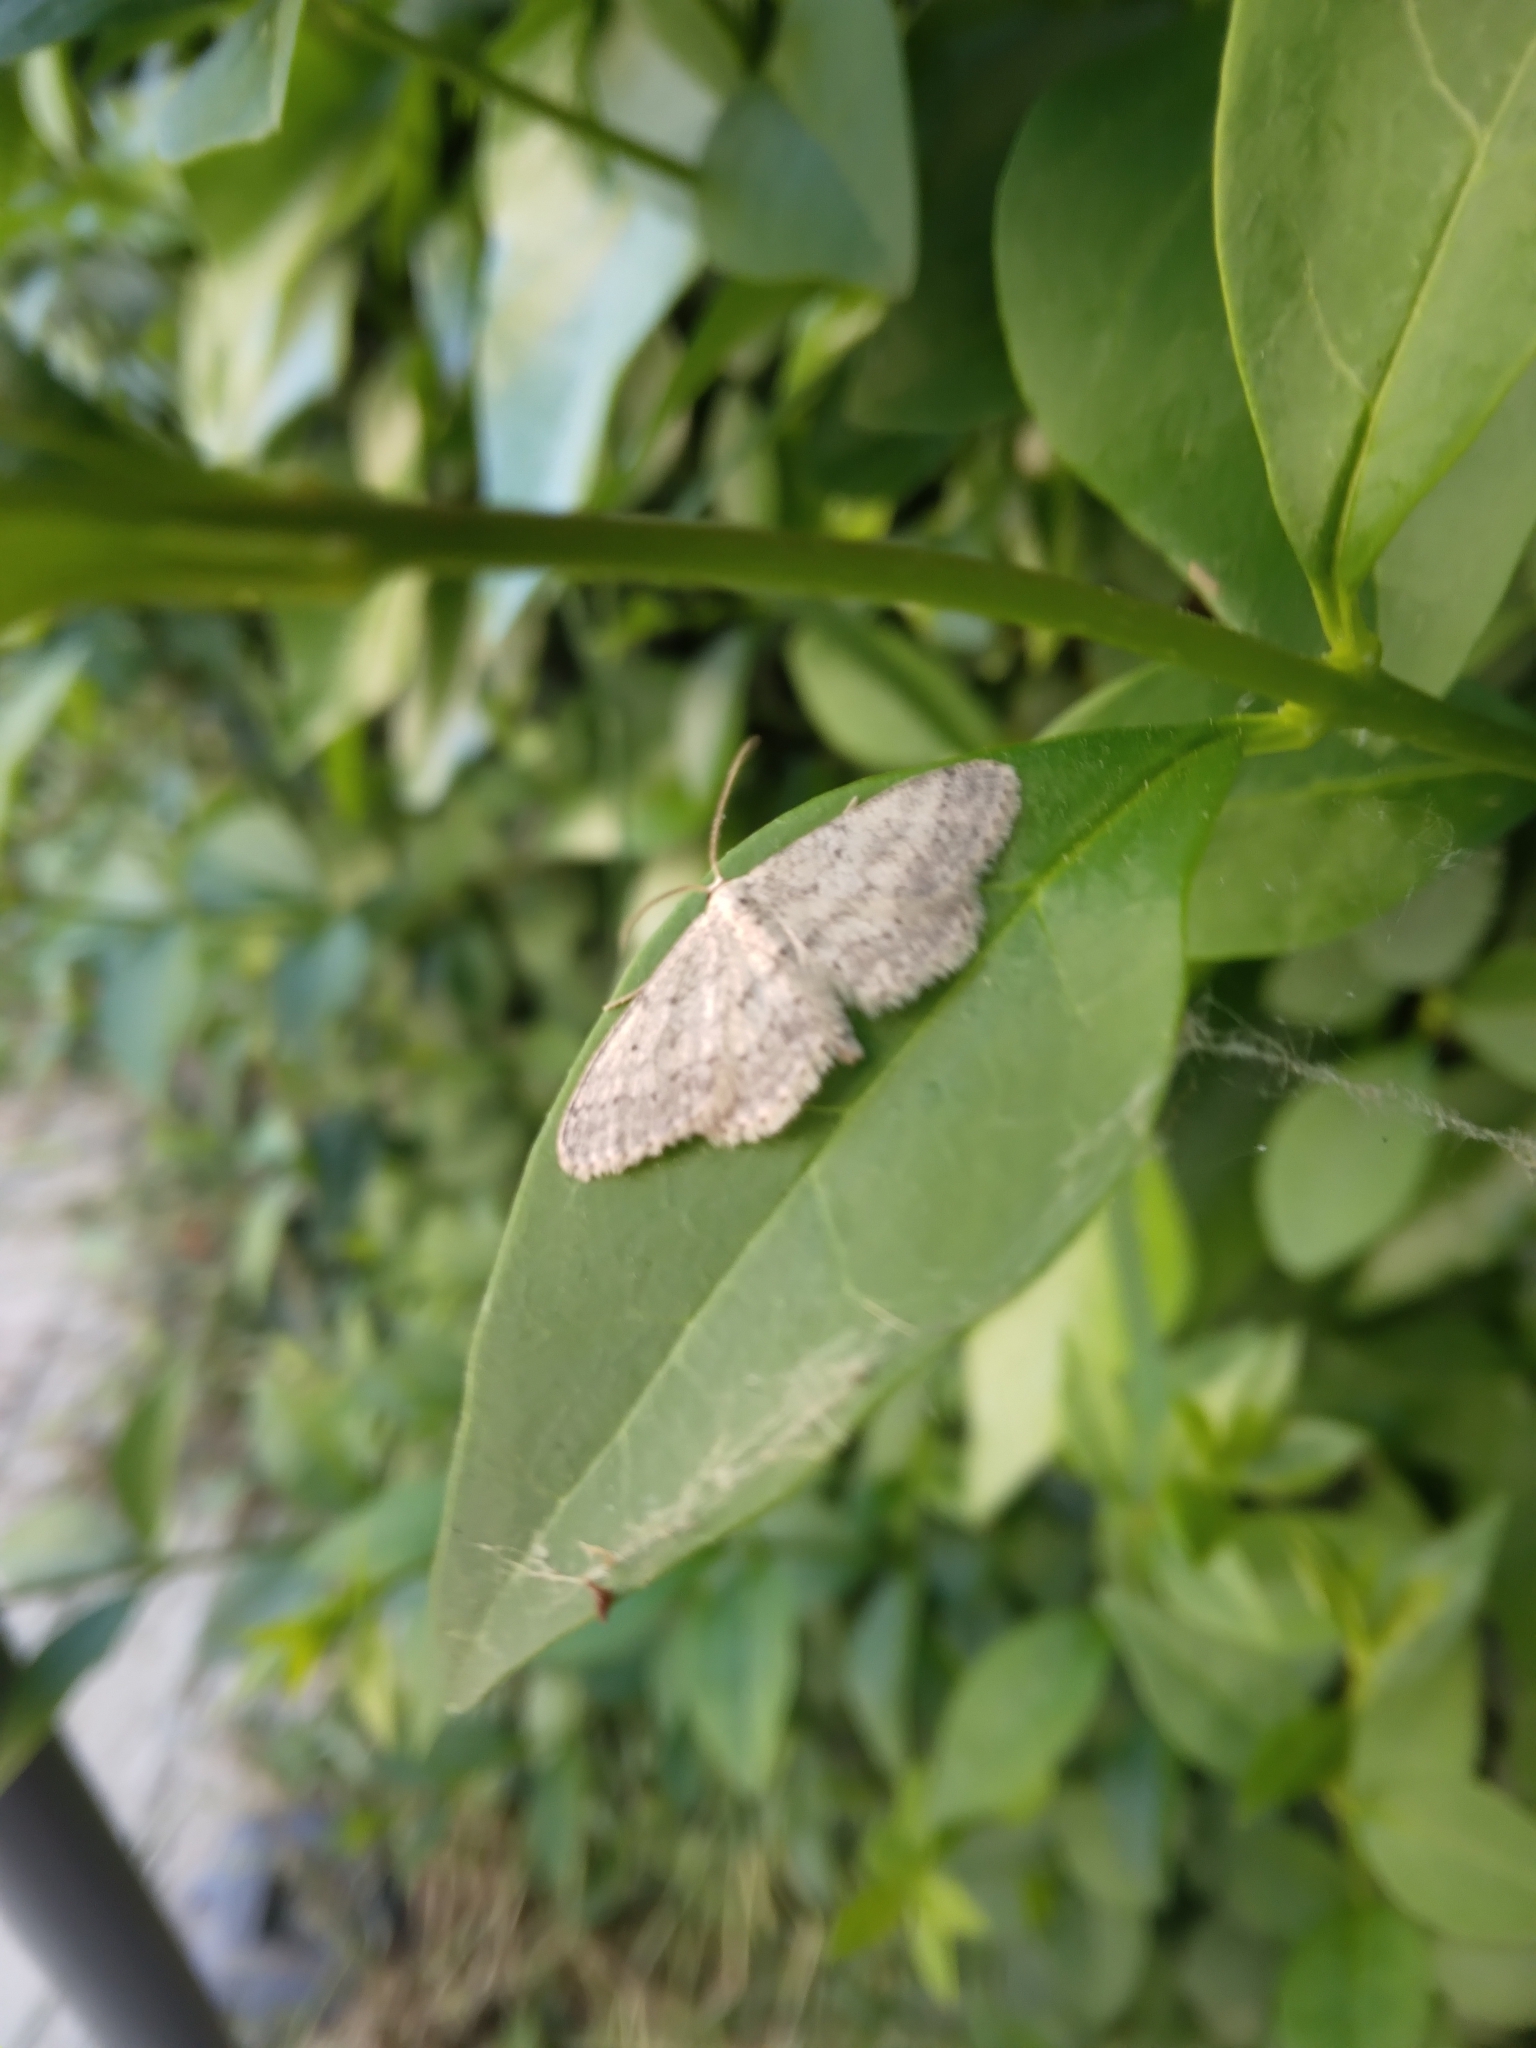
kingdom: Animalia
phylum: Arthropoda
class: Insecta
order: Lepidoptera
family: Geometridae
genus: Idaea
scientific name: Idaea seriata
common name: Small dusty wave
